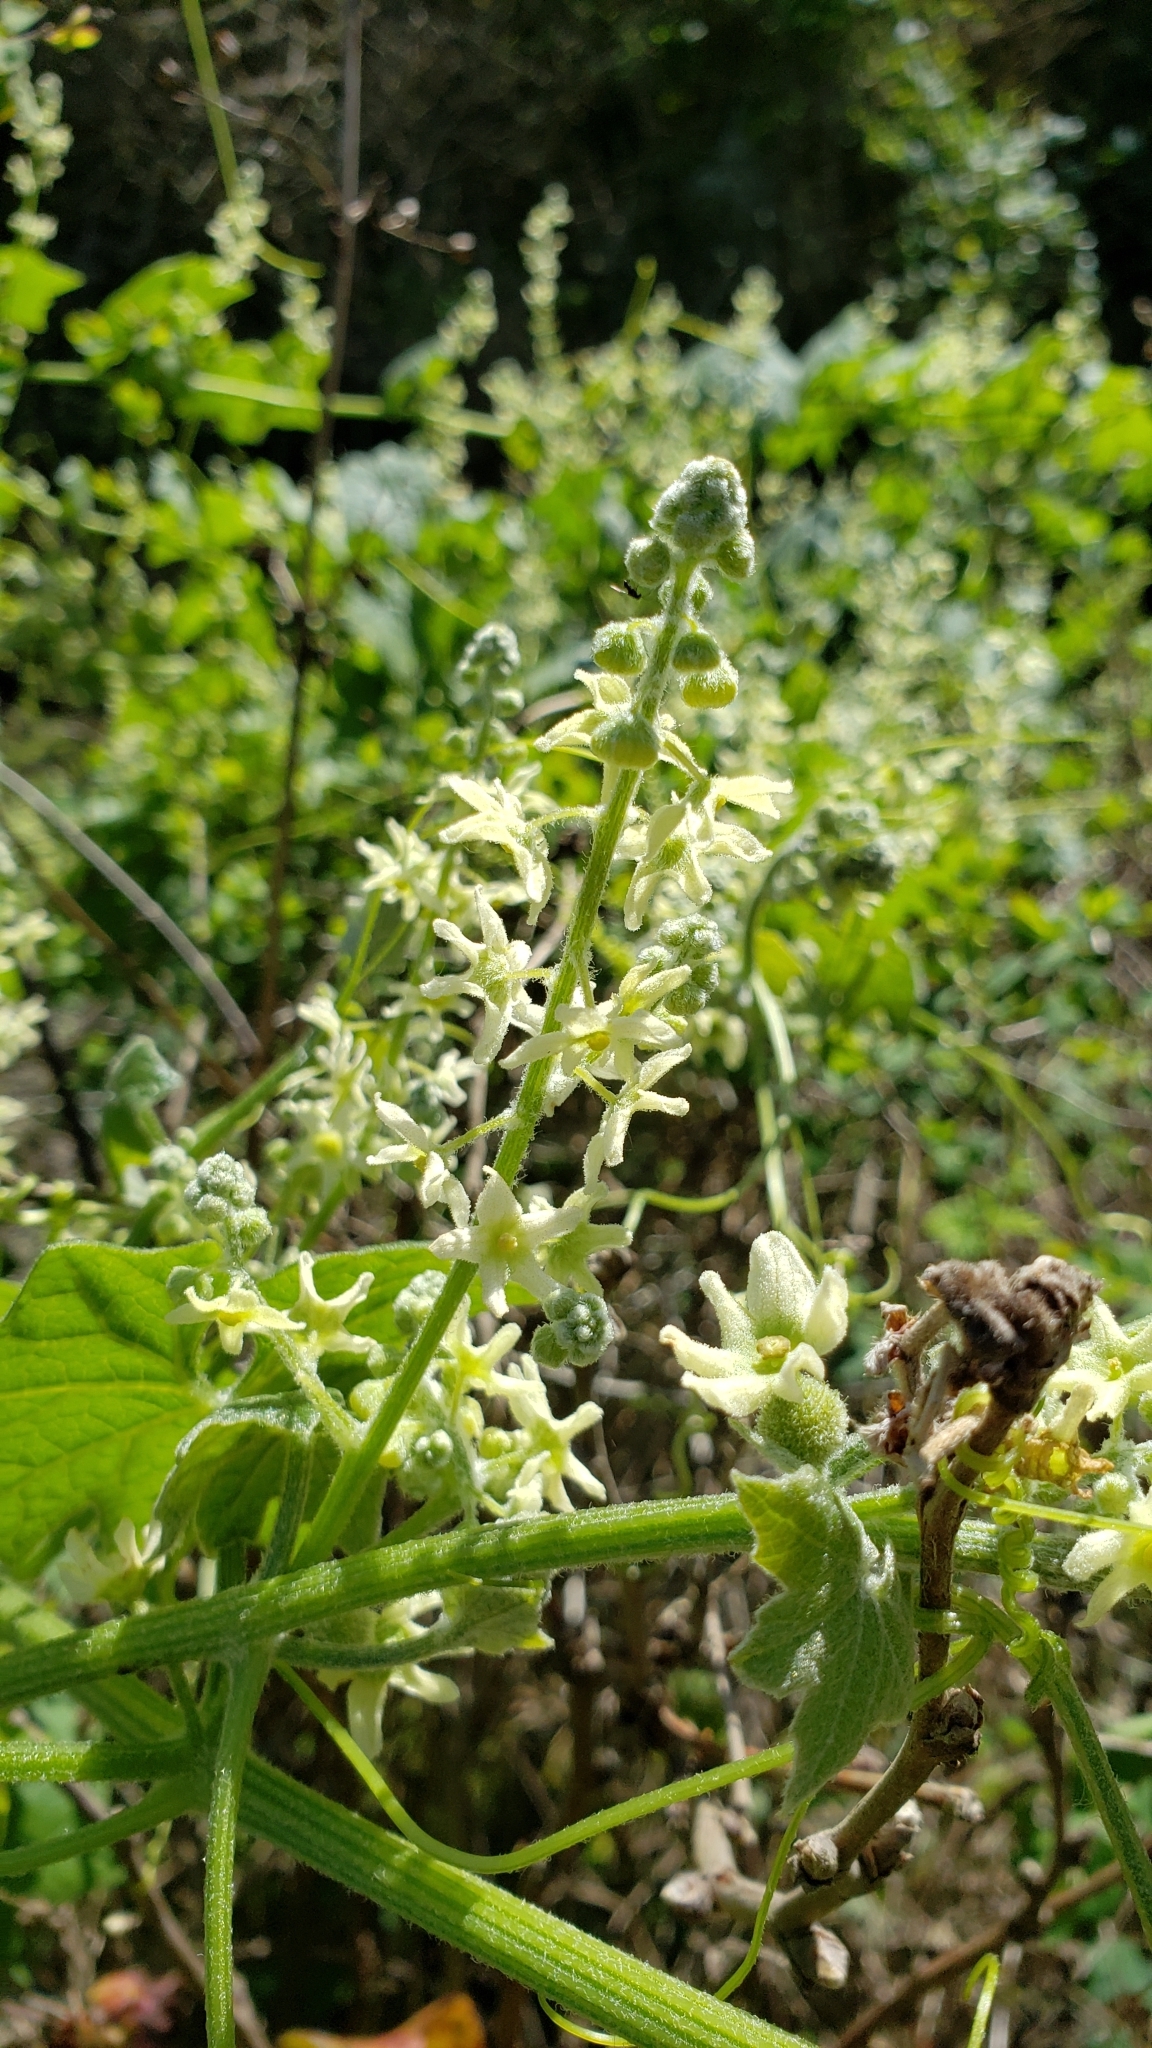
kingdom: Plantae
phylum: Tracheophyta
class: Magnoliopsida
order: Cucurbitales
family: Cucurbitaceae
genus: Marah
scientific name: Marah fabacea
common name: California manroot
